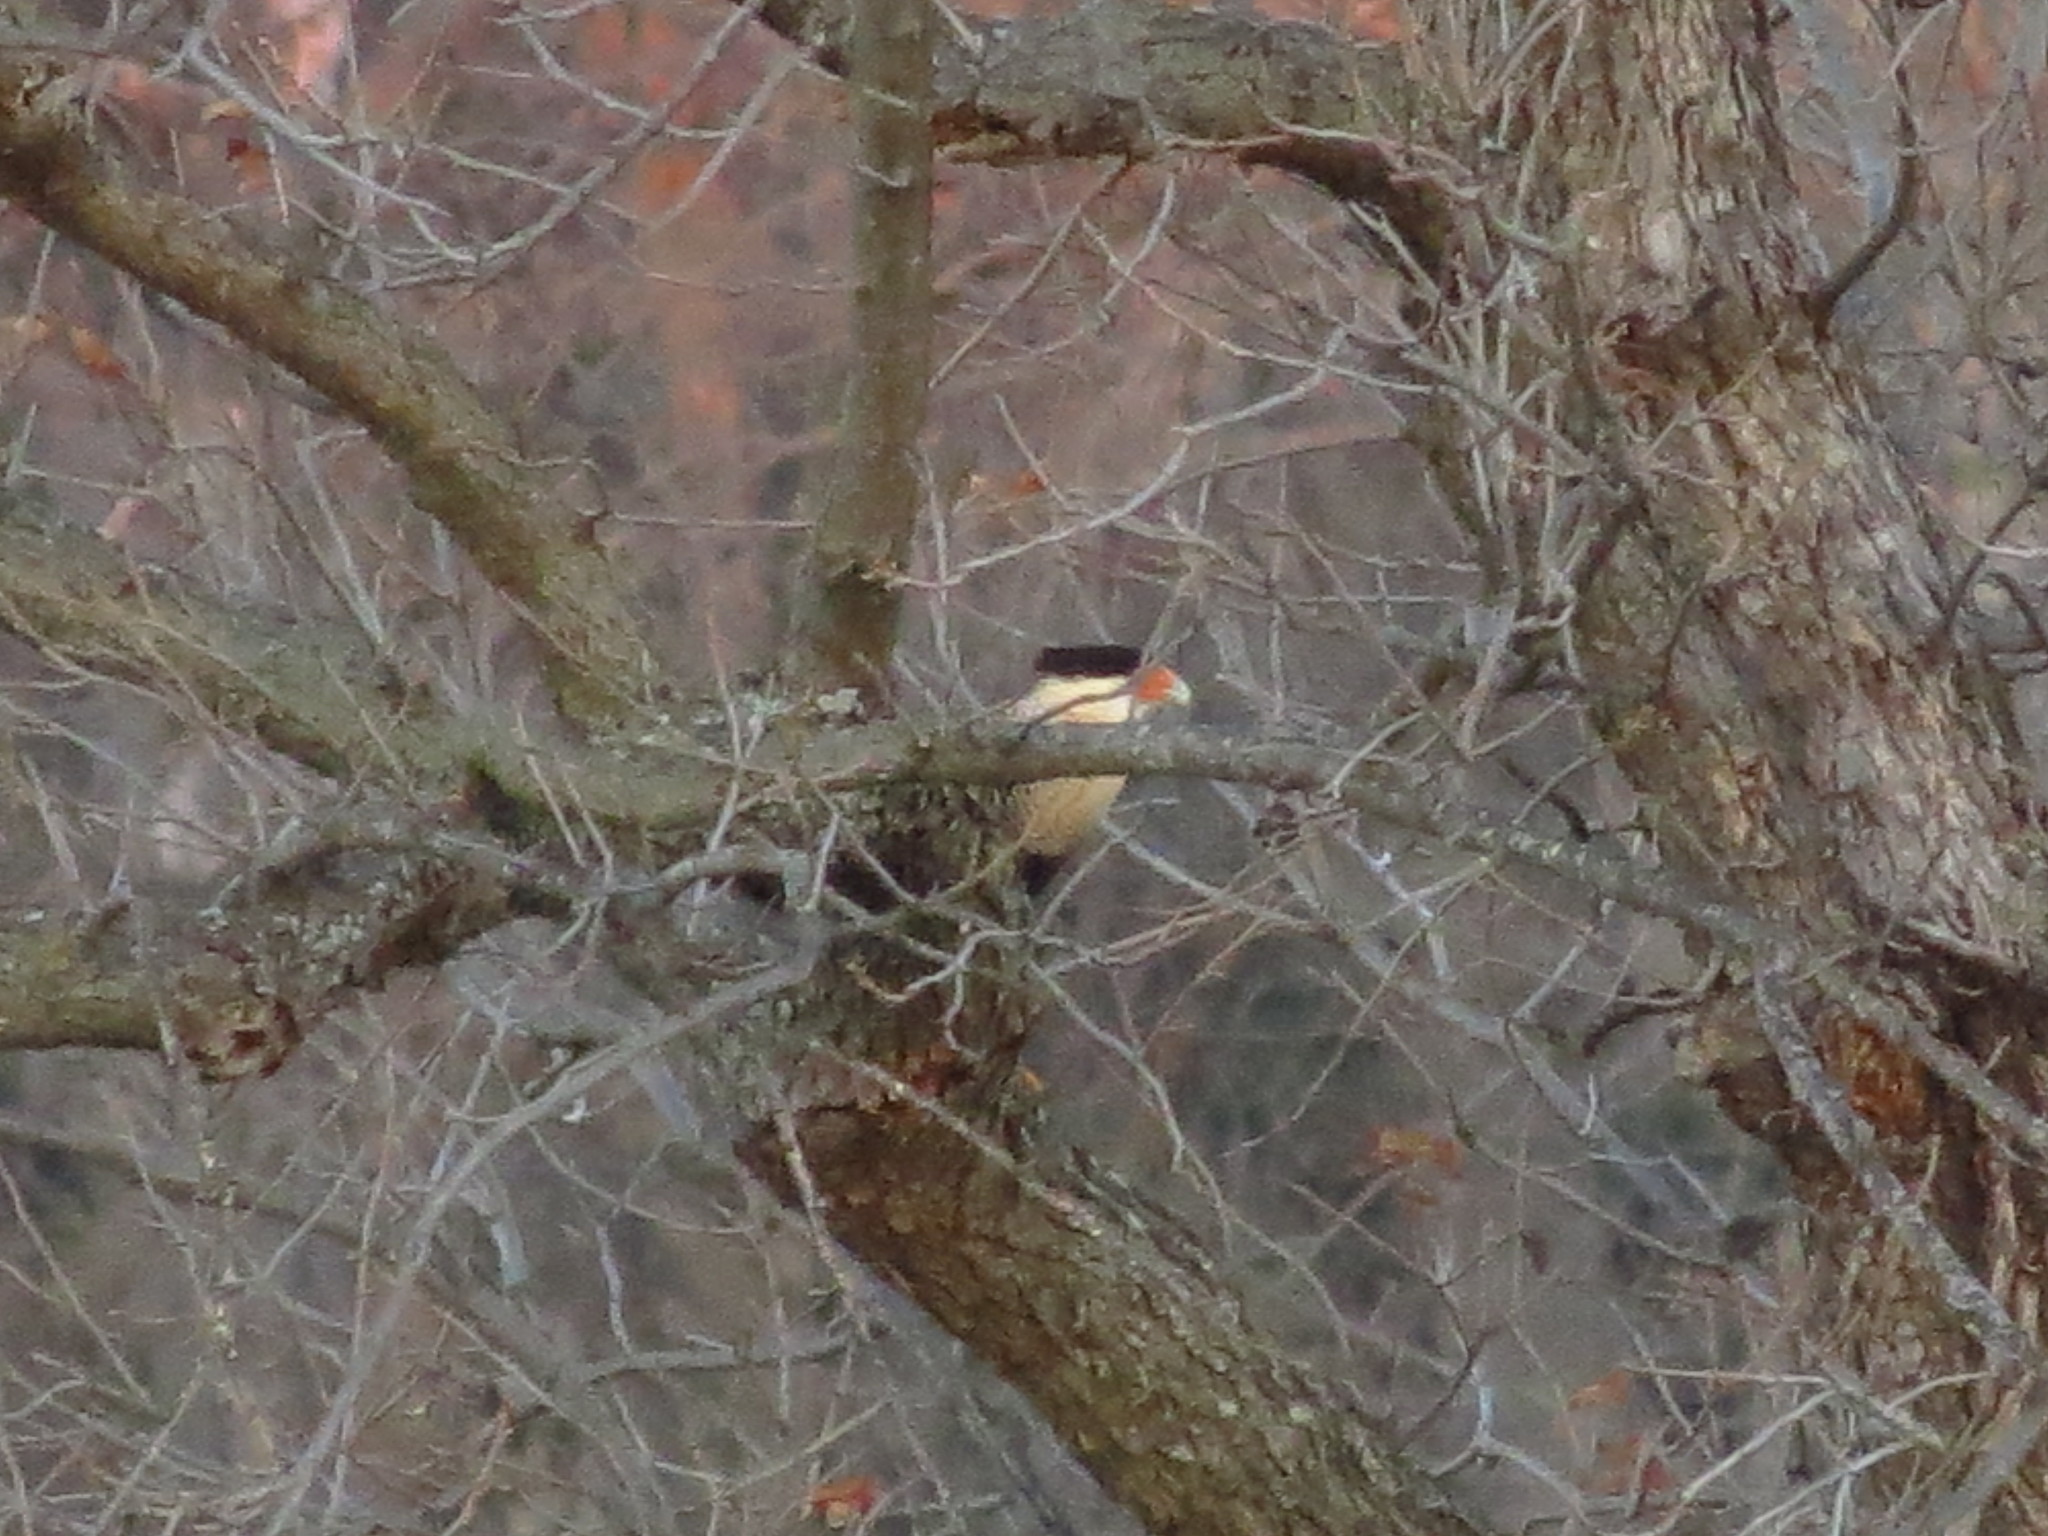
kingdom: Animalia
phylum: Chordata
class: Aves
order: Falconiformes
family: Falconidae
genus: Caracara
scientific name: Caracara plancus
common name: Southern caracara
